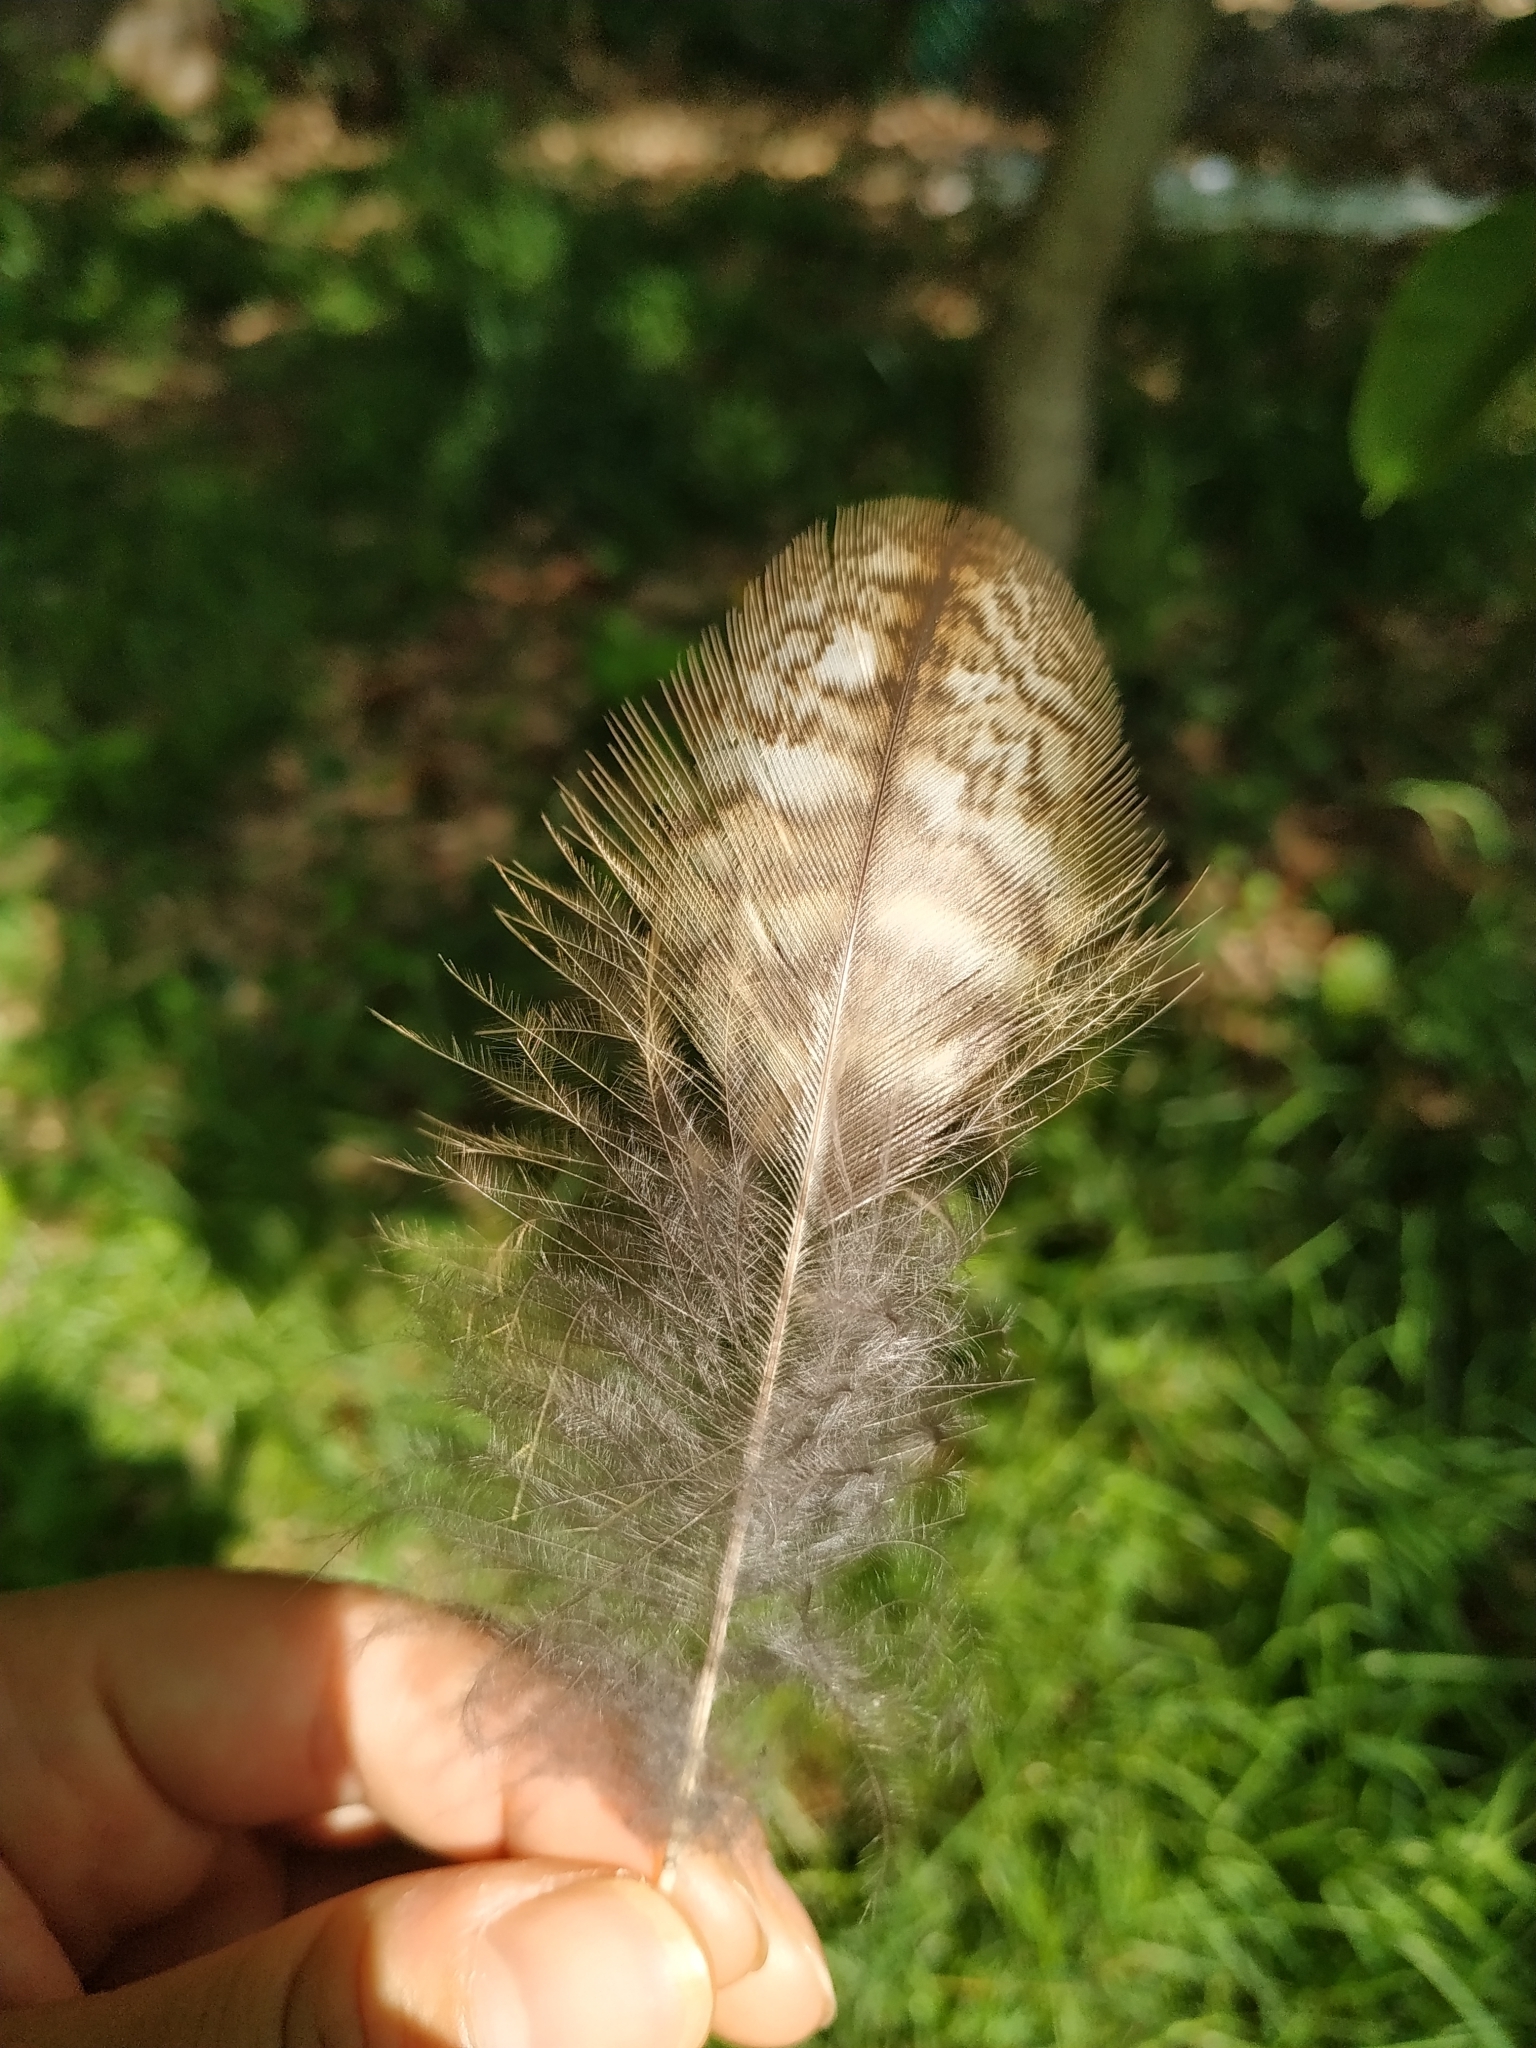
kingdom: Animalia
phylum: Chordata
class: Aves
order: Strigiformes
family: Strigidae
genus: Strix
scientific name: Strix aluco
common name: Tawny owl
